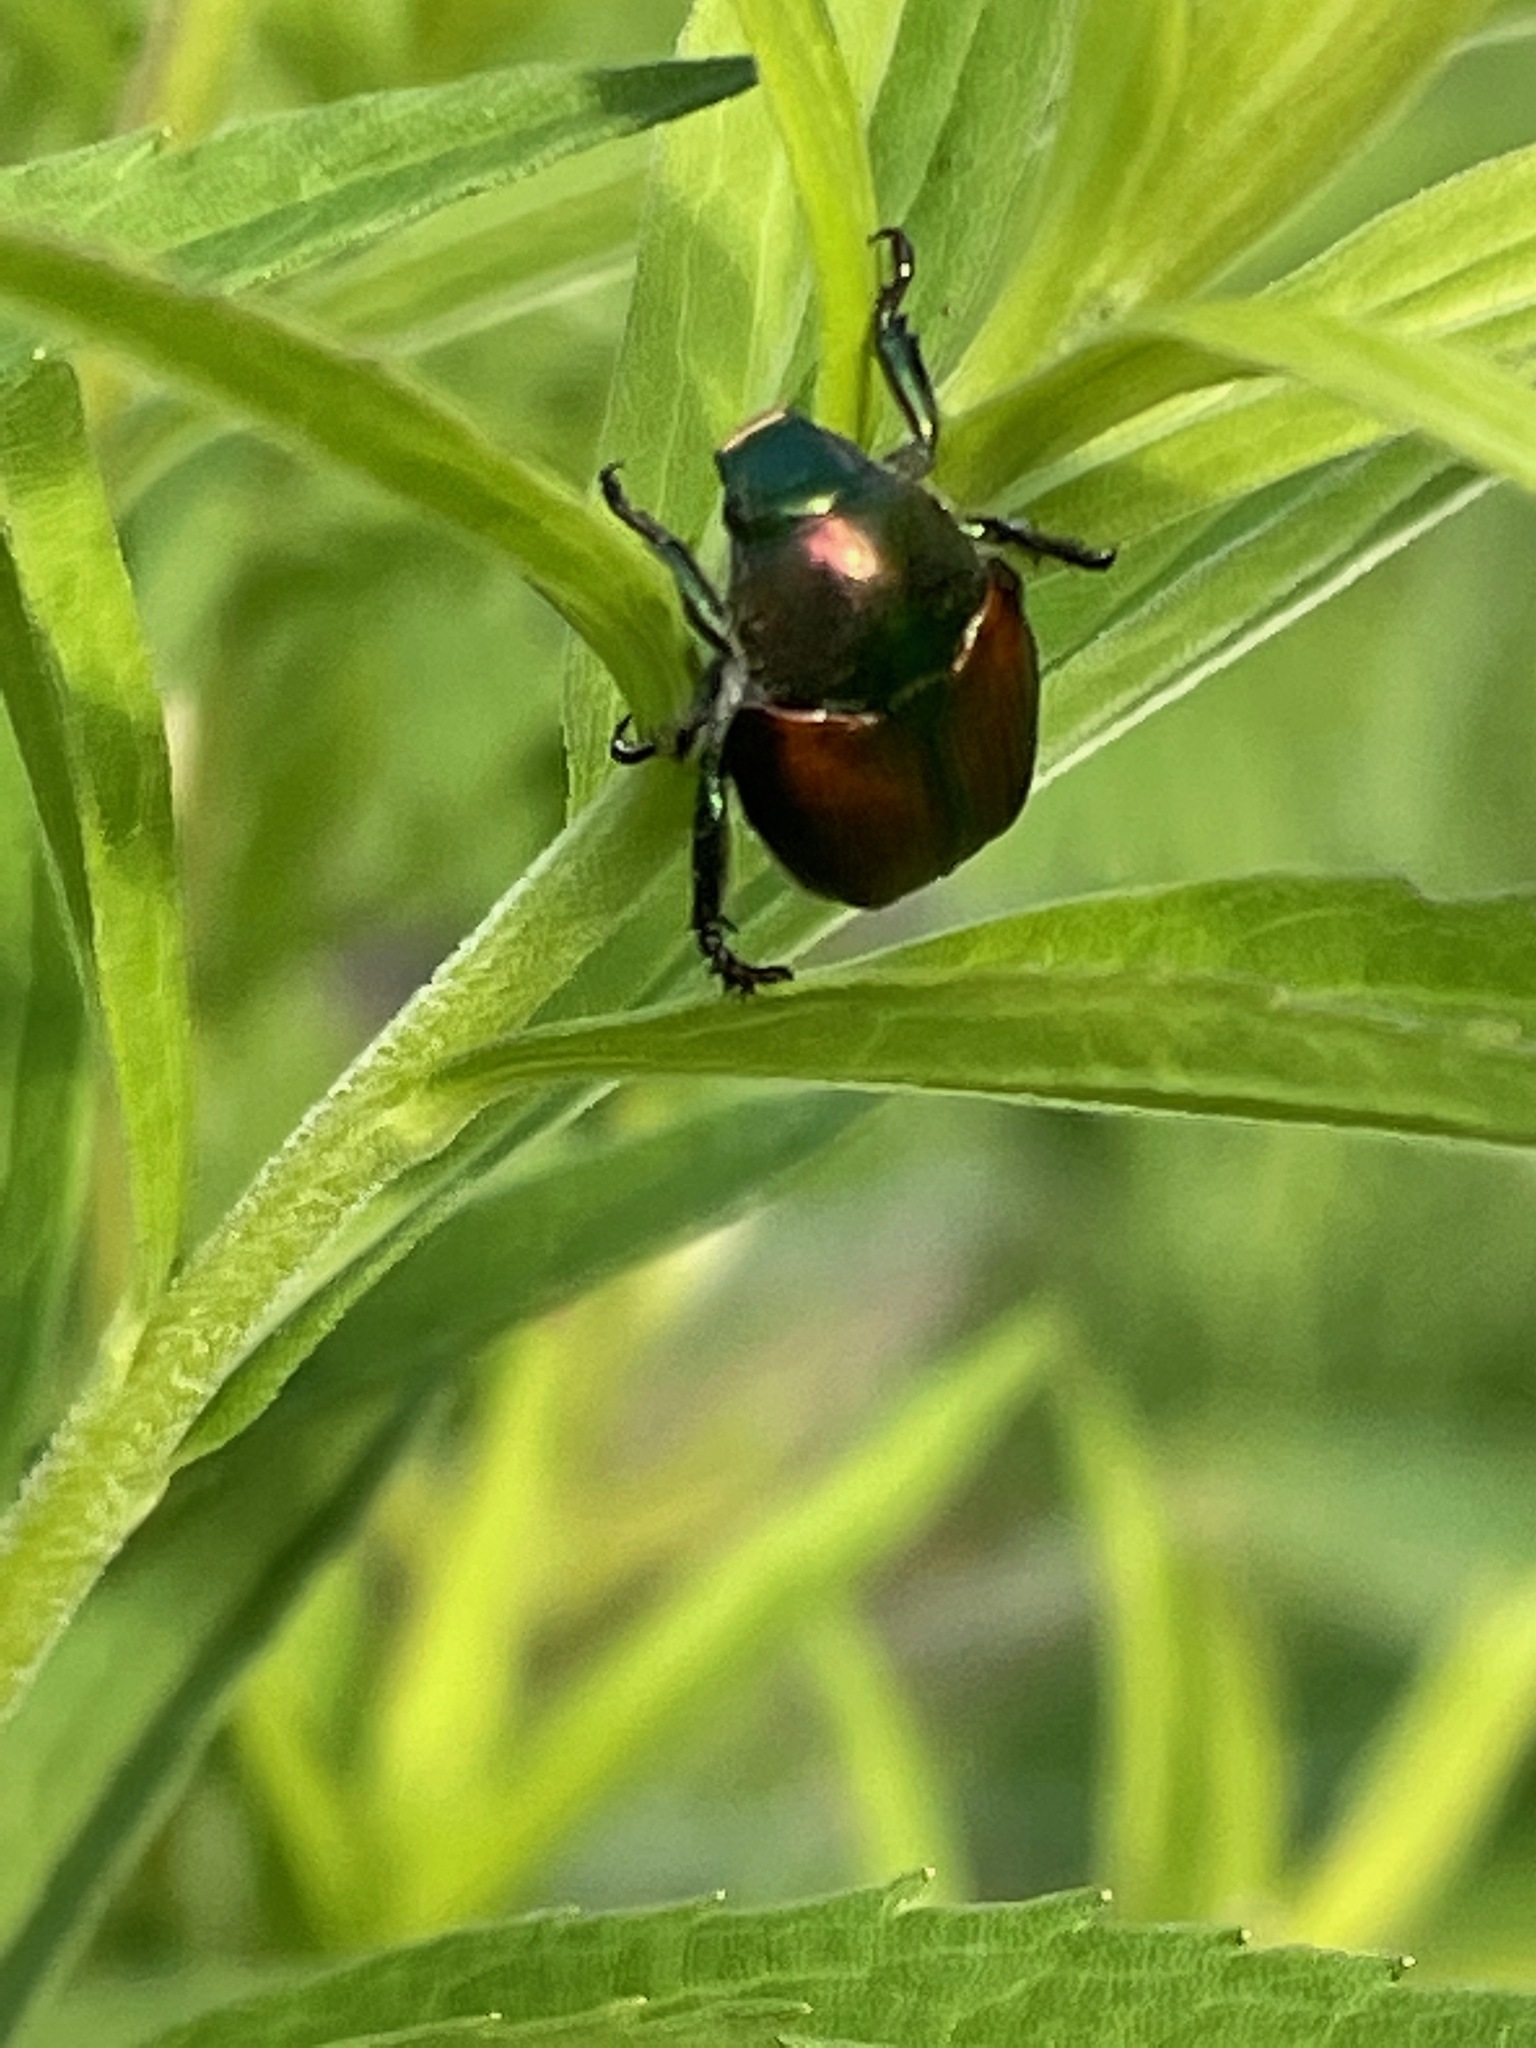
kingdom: Animalia
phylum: Arthropoda
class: Insecta
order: Coleoptera
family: Scarabaeidae
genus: Popillia
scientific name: Popillia japonica
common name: Japanese beetle
